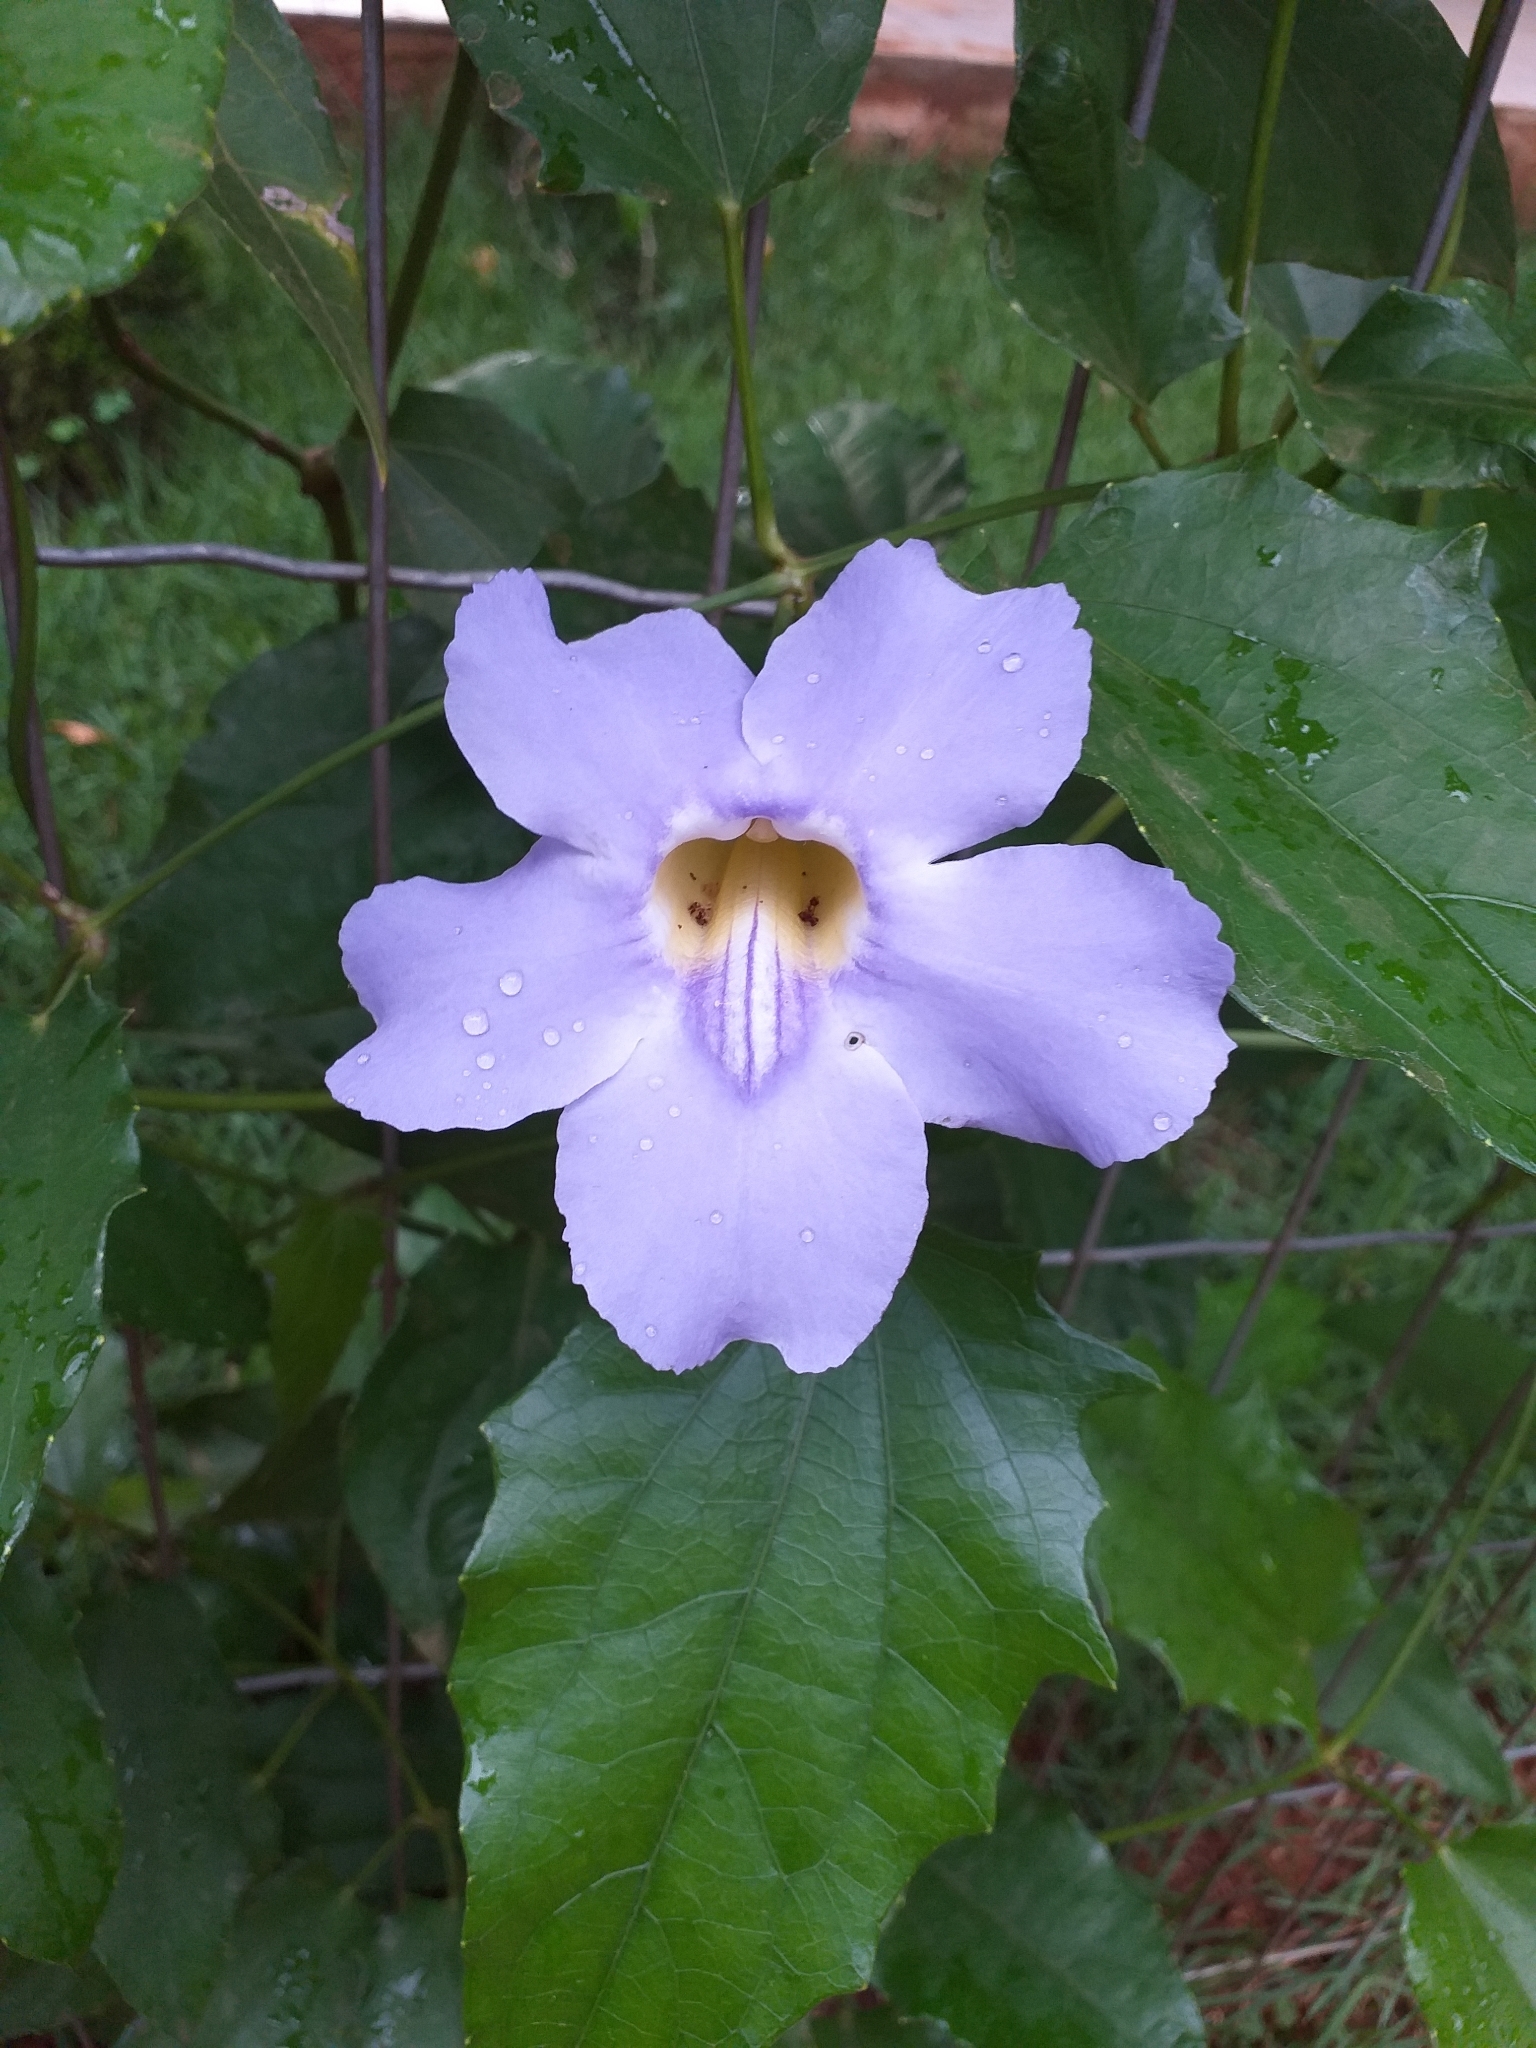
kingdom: Plantae
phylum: Tracheophyta
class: Magnoliopsida
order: Lamiales
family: Acanthaceae
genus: Thunbergia
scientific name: Thunbergia grandiflora
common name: Bengal trumpet
